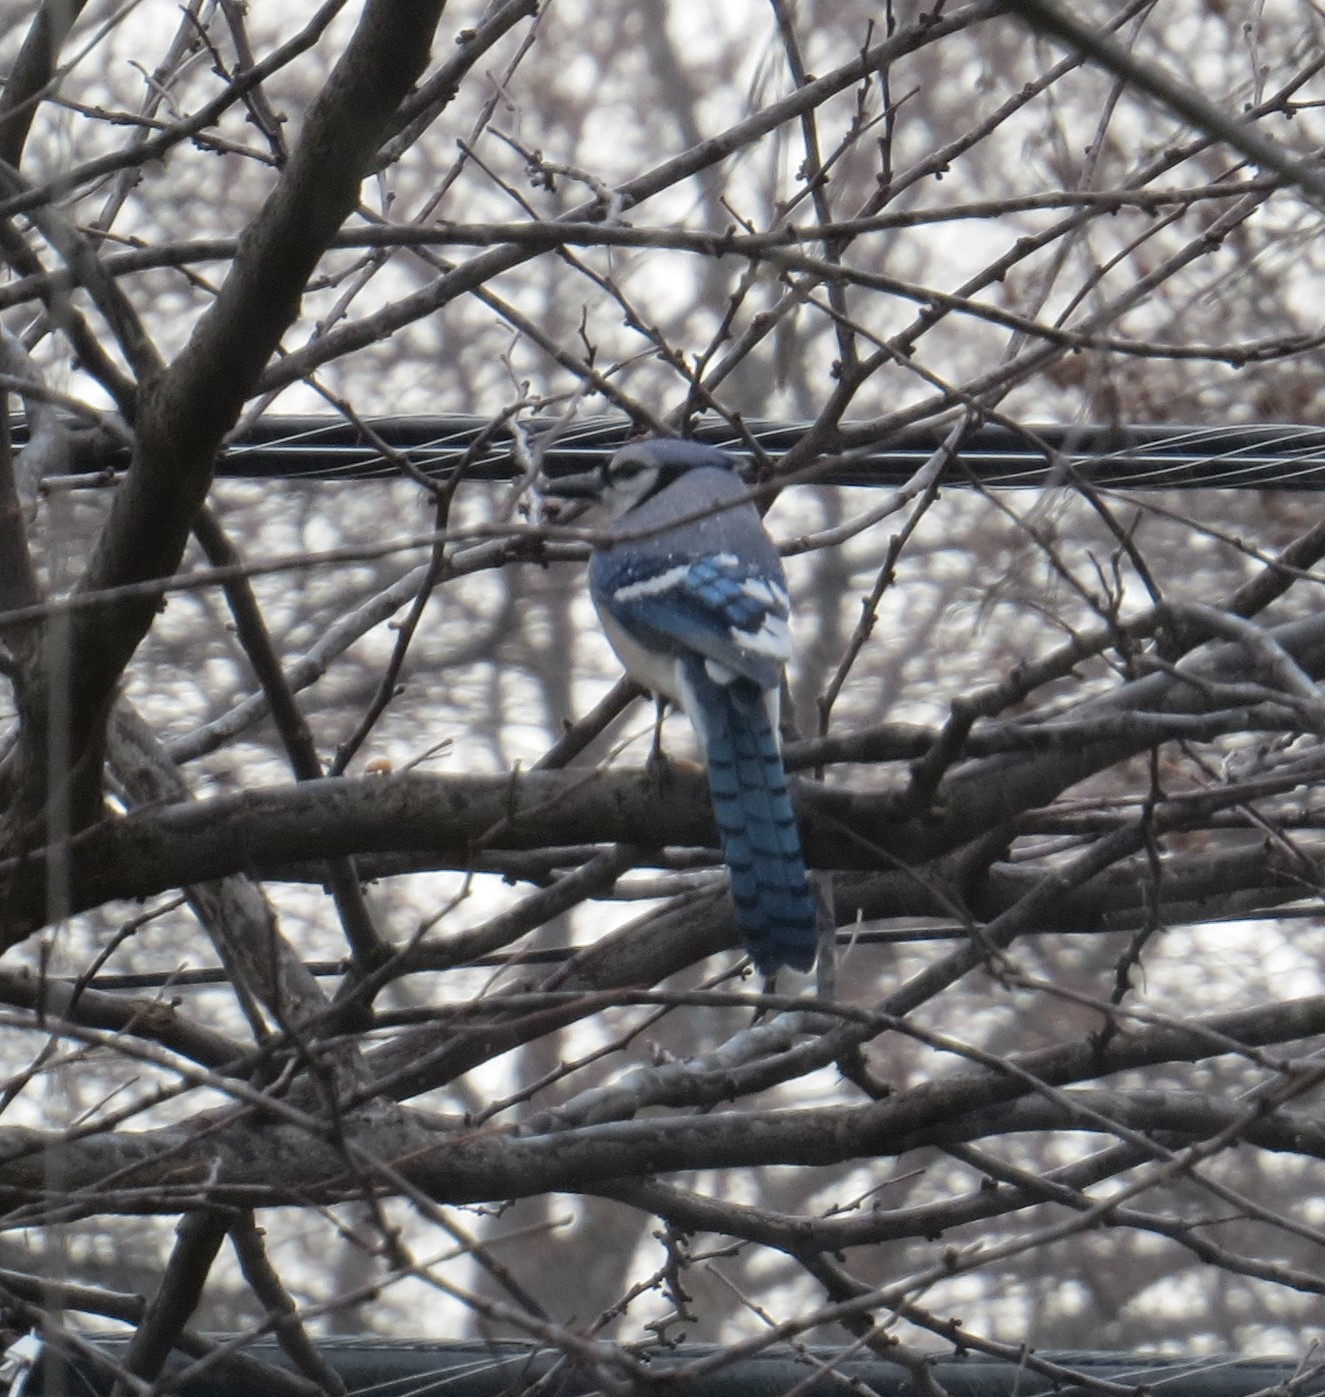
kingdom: Animalia
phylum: Chordata
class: Aves
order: Passeriformes
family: Corvidae
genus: Cyanocitta
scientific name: Cyanocitta cristata
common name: Blue jay
